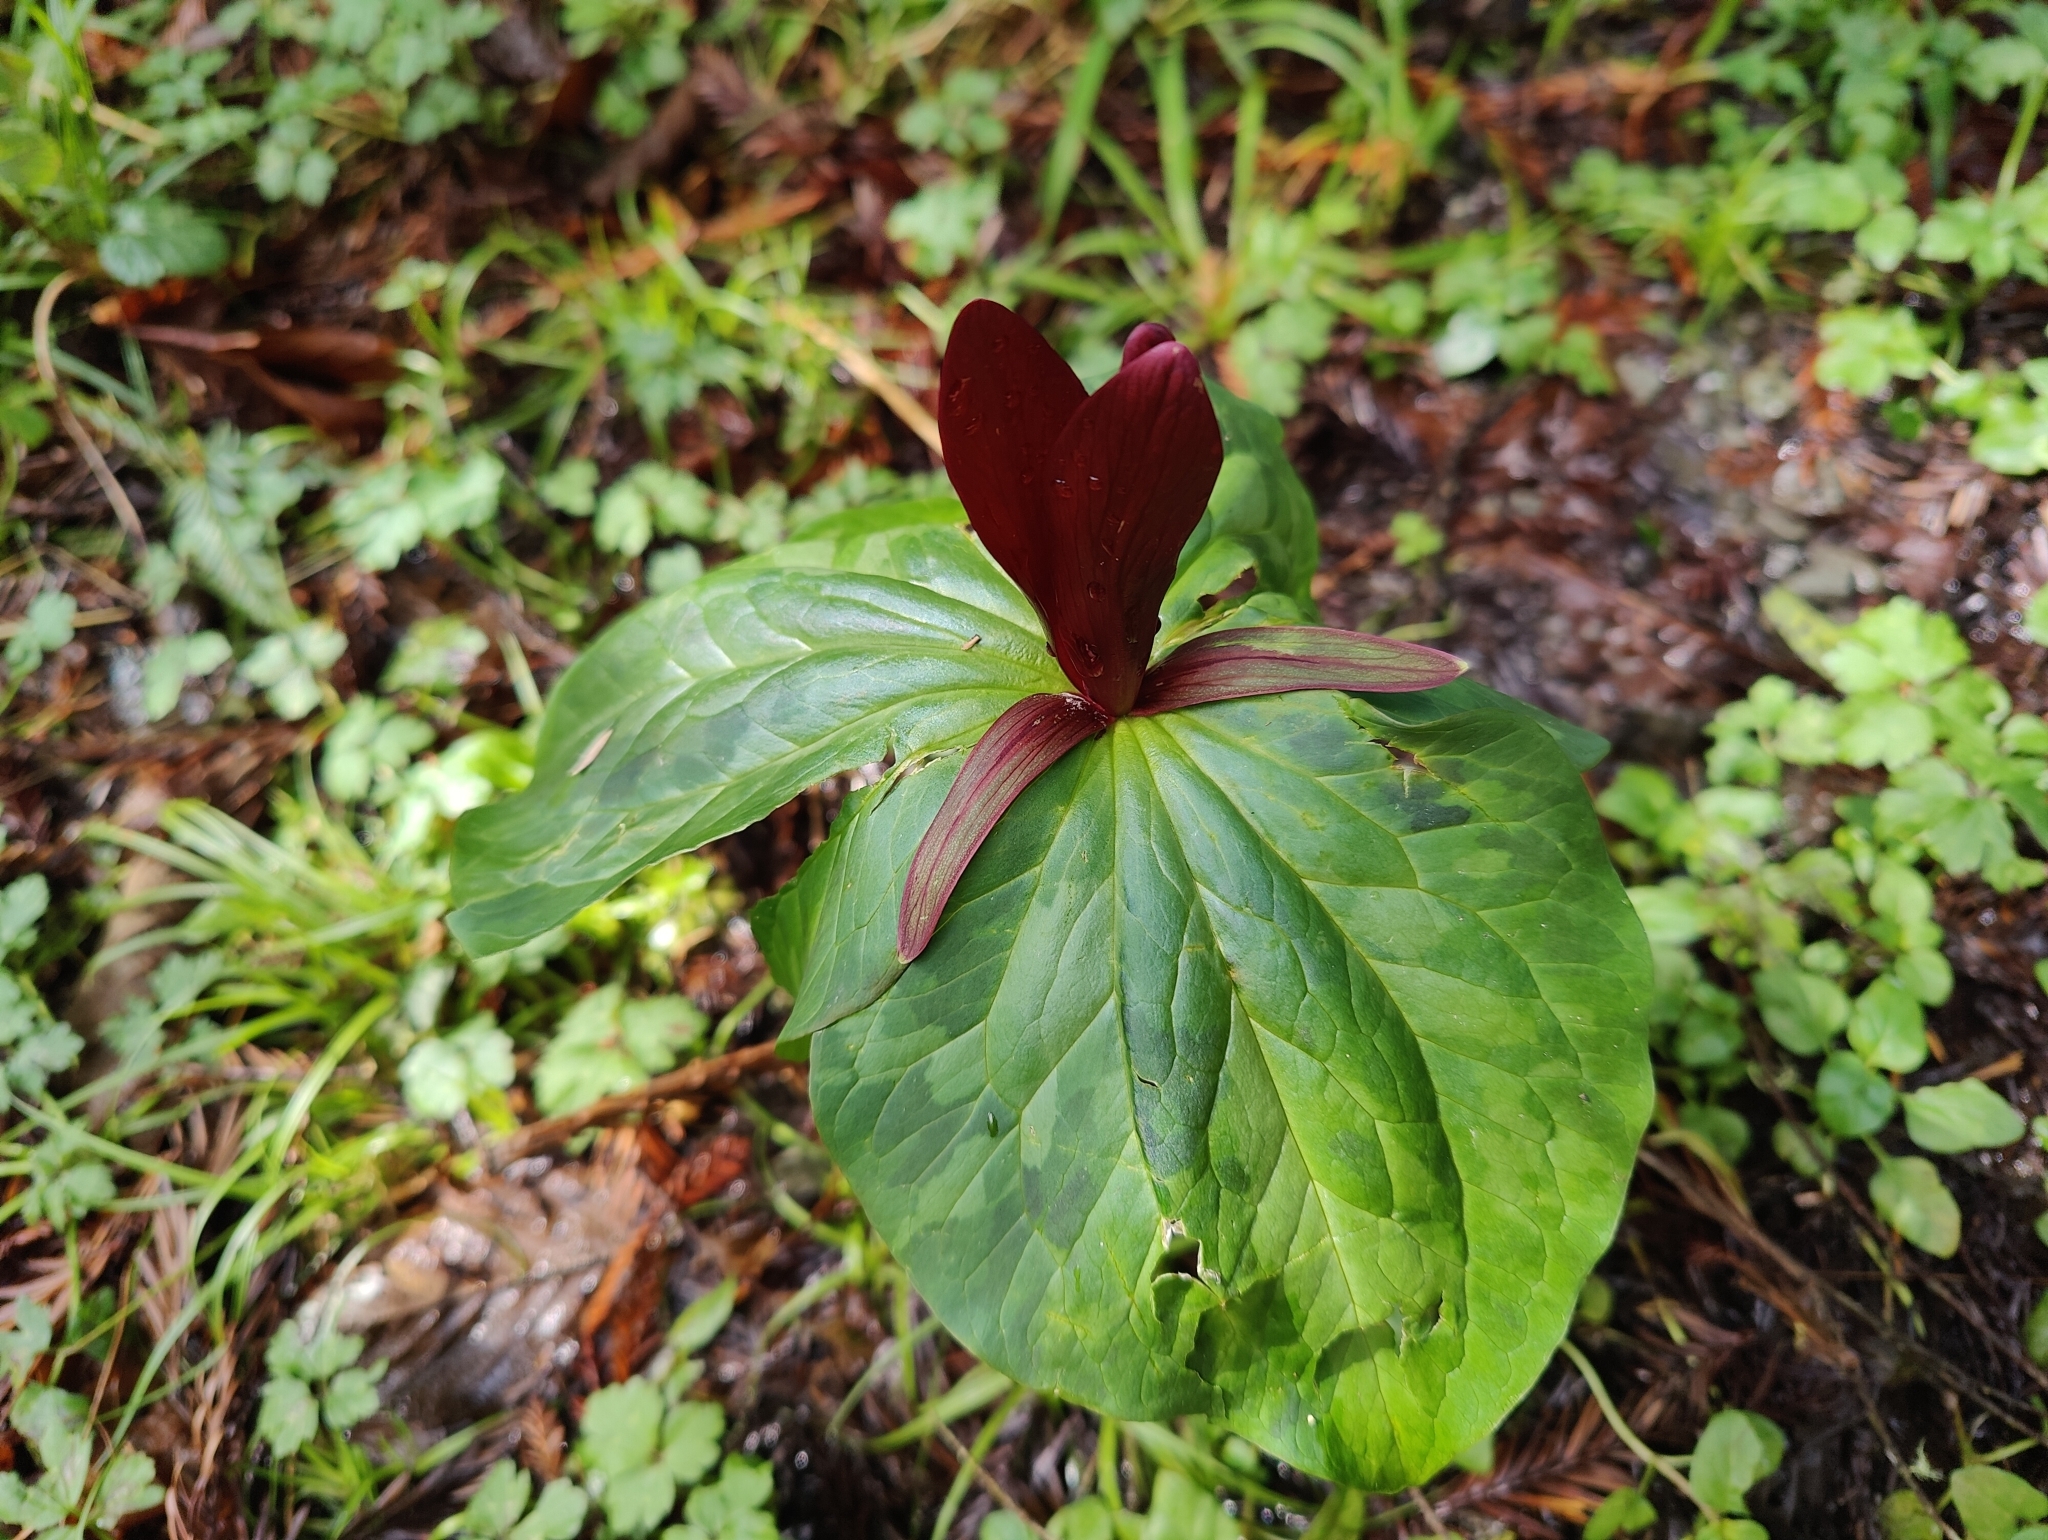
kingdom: Plantae
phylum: Tracheophyta
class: Liliopsida
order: Liliales
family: Melanthiaceae
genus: Trillium
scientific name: Trillium kurabayashii
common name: Giant purple trillium
